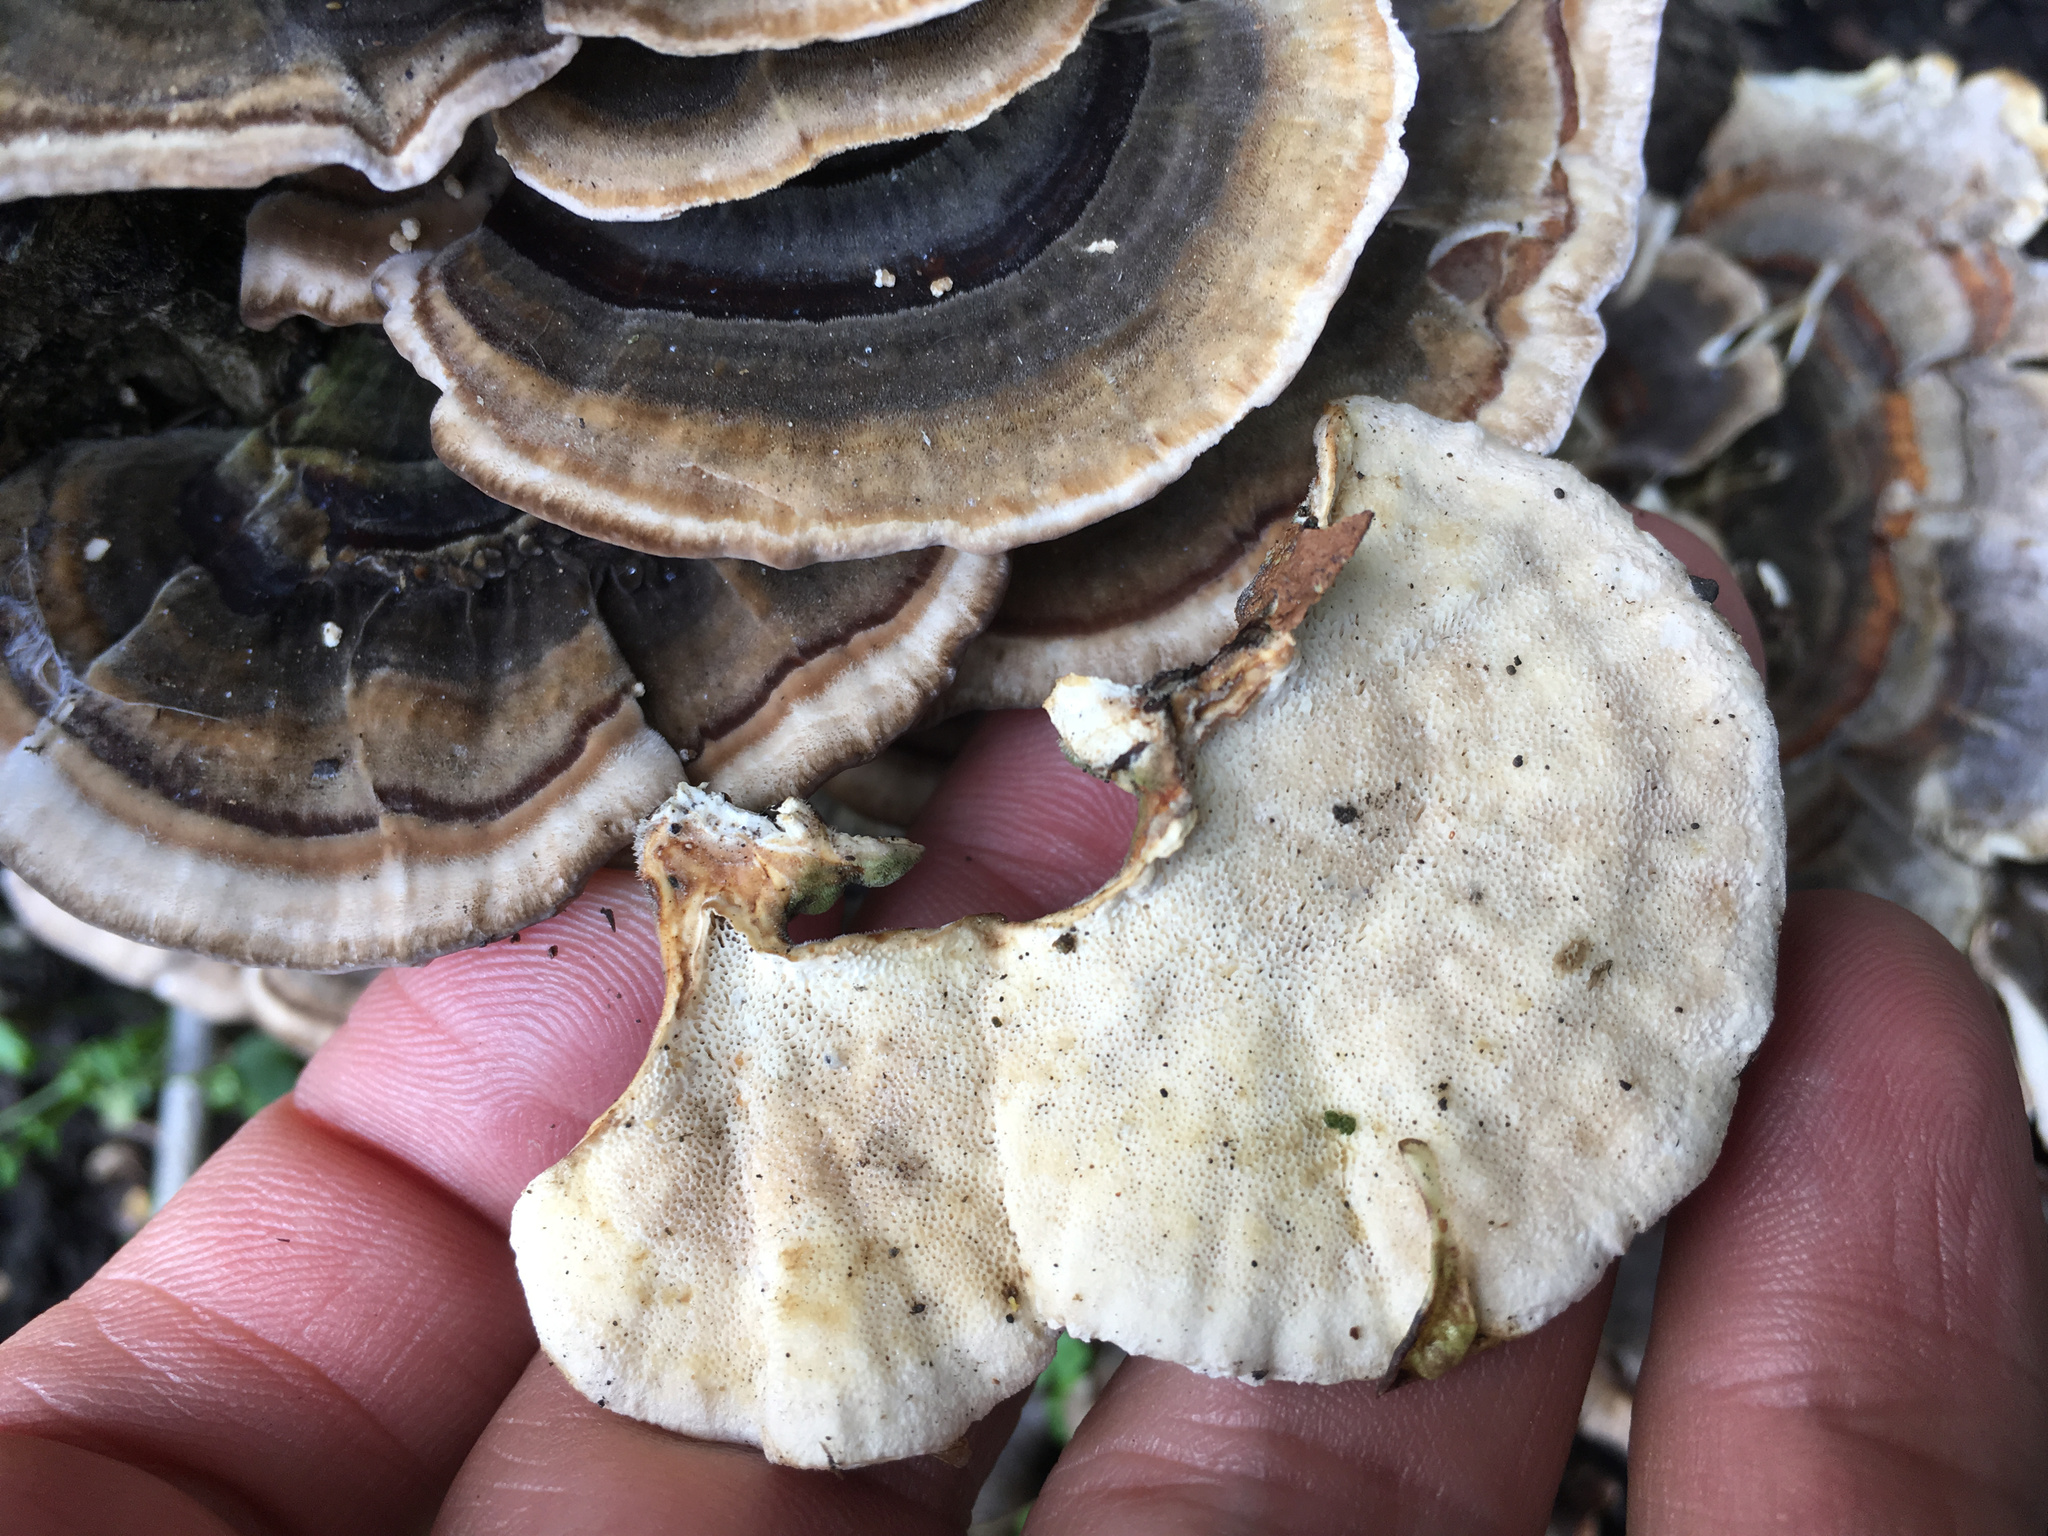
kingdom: Fungi
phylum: Basidiomycota
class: Agaricomycetes
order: Polyporales
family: Polyporaceae
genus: Trametes
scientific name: Trametes versicolor
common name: Turkeytail
